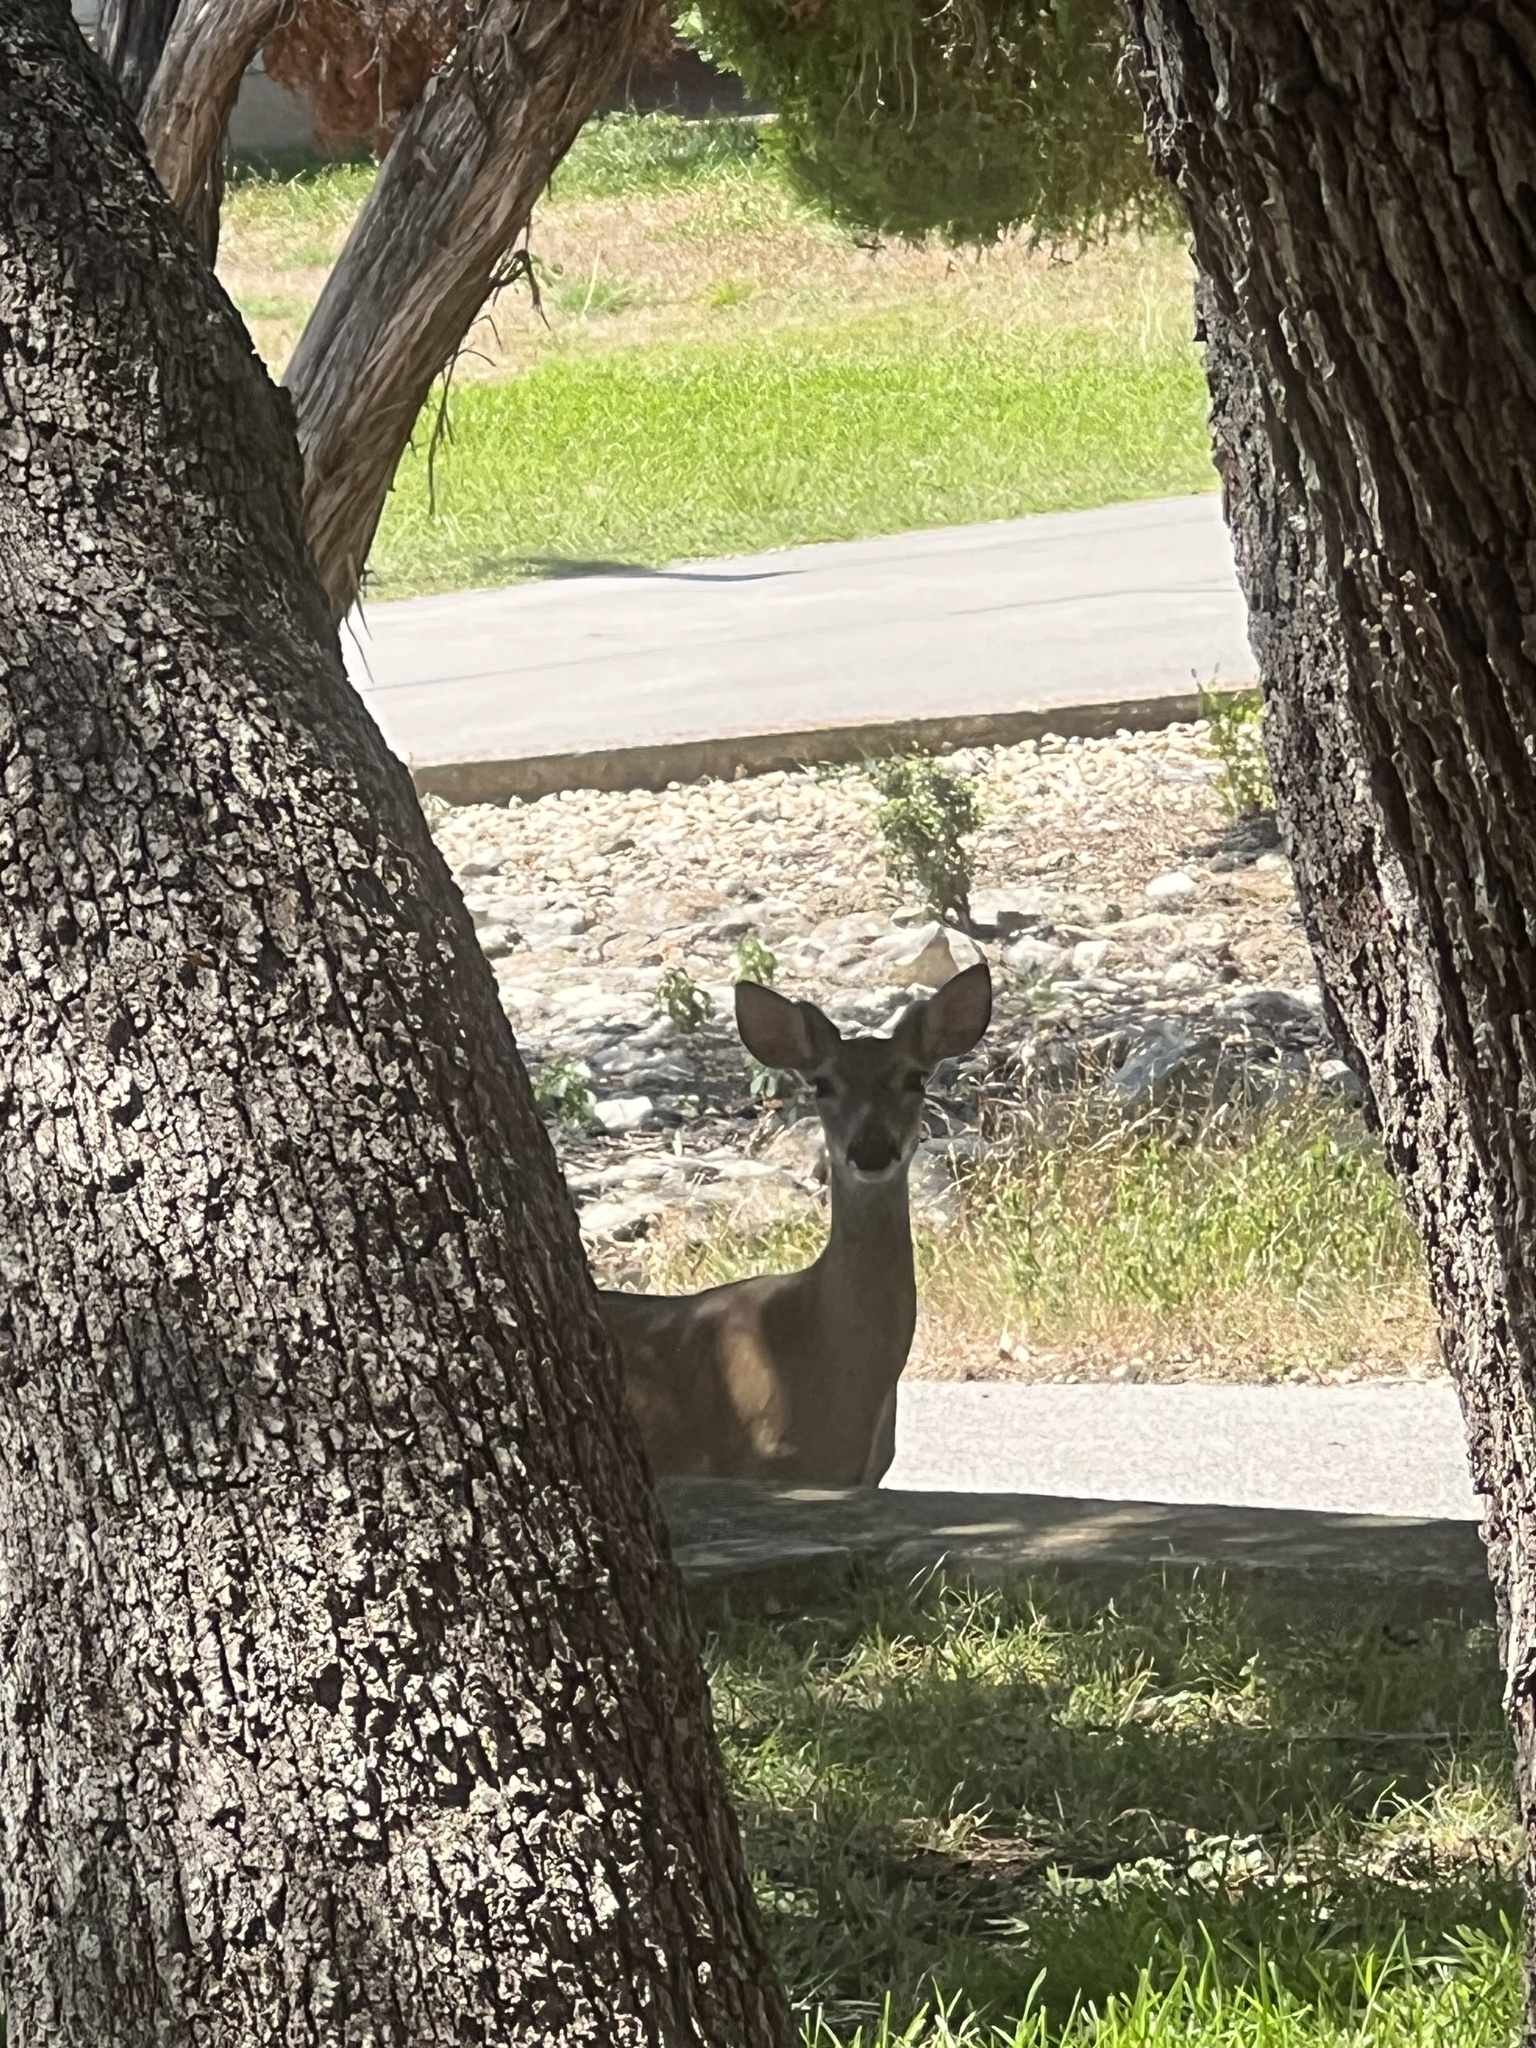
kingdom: Animalia
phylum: Chordata
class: Mammalia
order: Artiodactyla
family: Cervidae
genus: Odocoileus
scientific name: Odocoileus virginianus
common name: White-tailed deer
